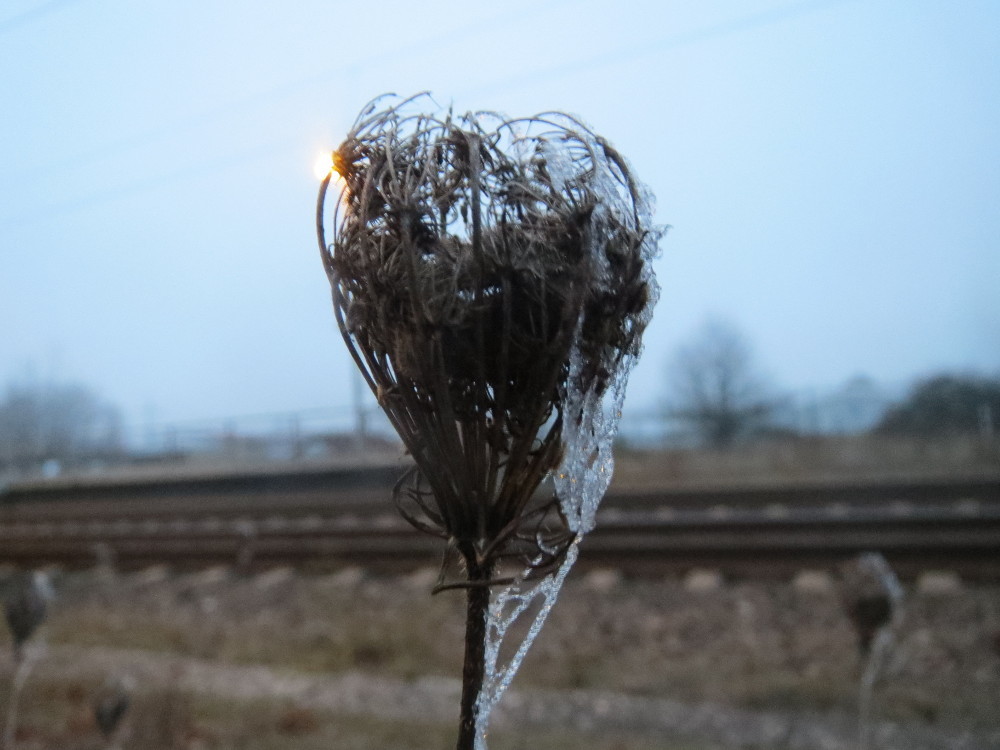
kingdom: Plantae
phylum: Tracheophyta
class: Magnoliopsida
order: Apiales
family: Apiaceae
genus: Daucus
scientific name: Daucus carota
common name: Wild carrot
